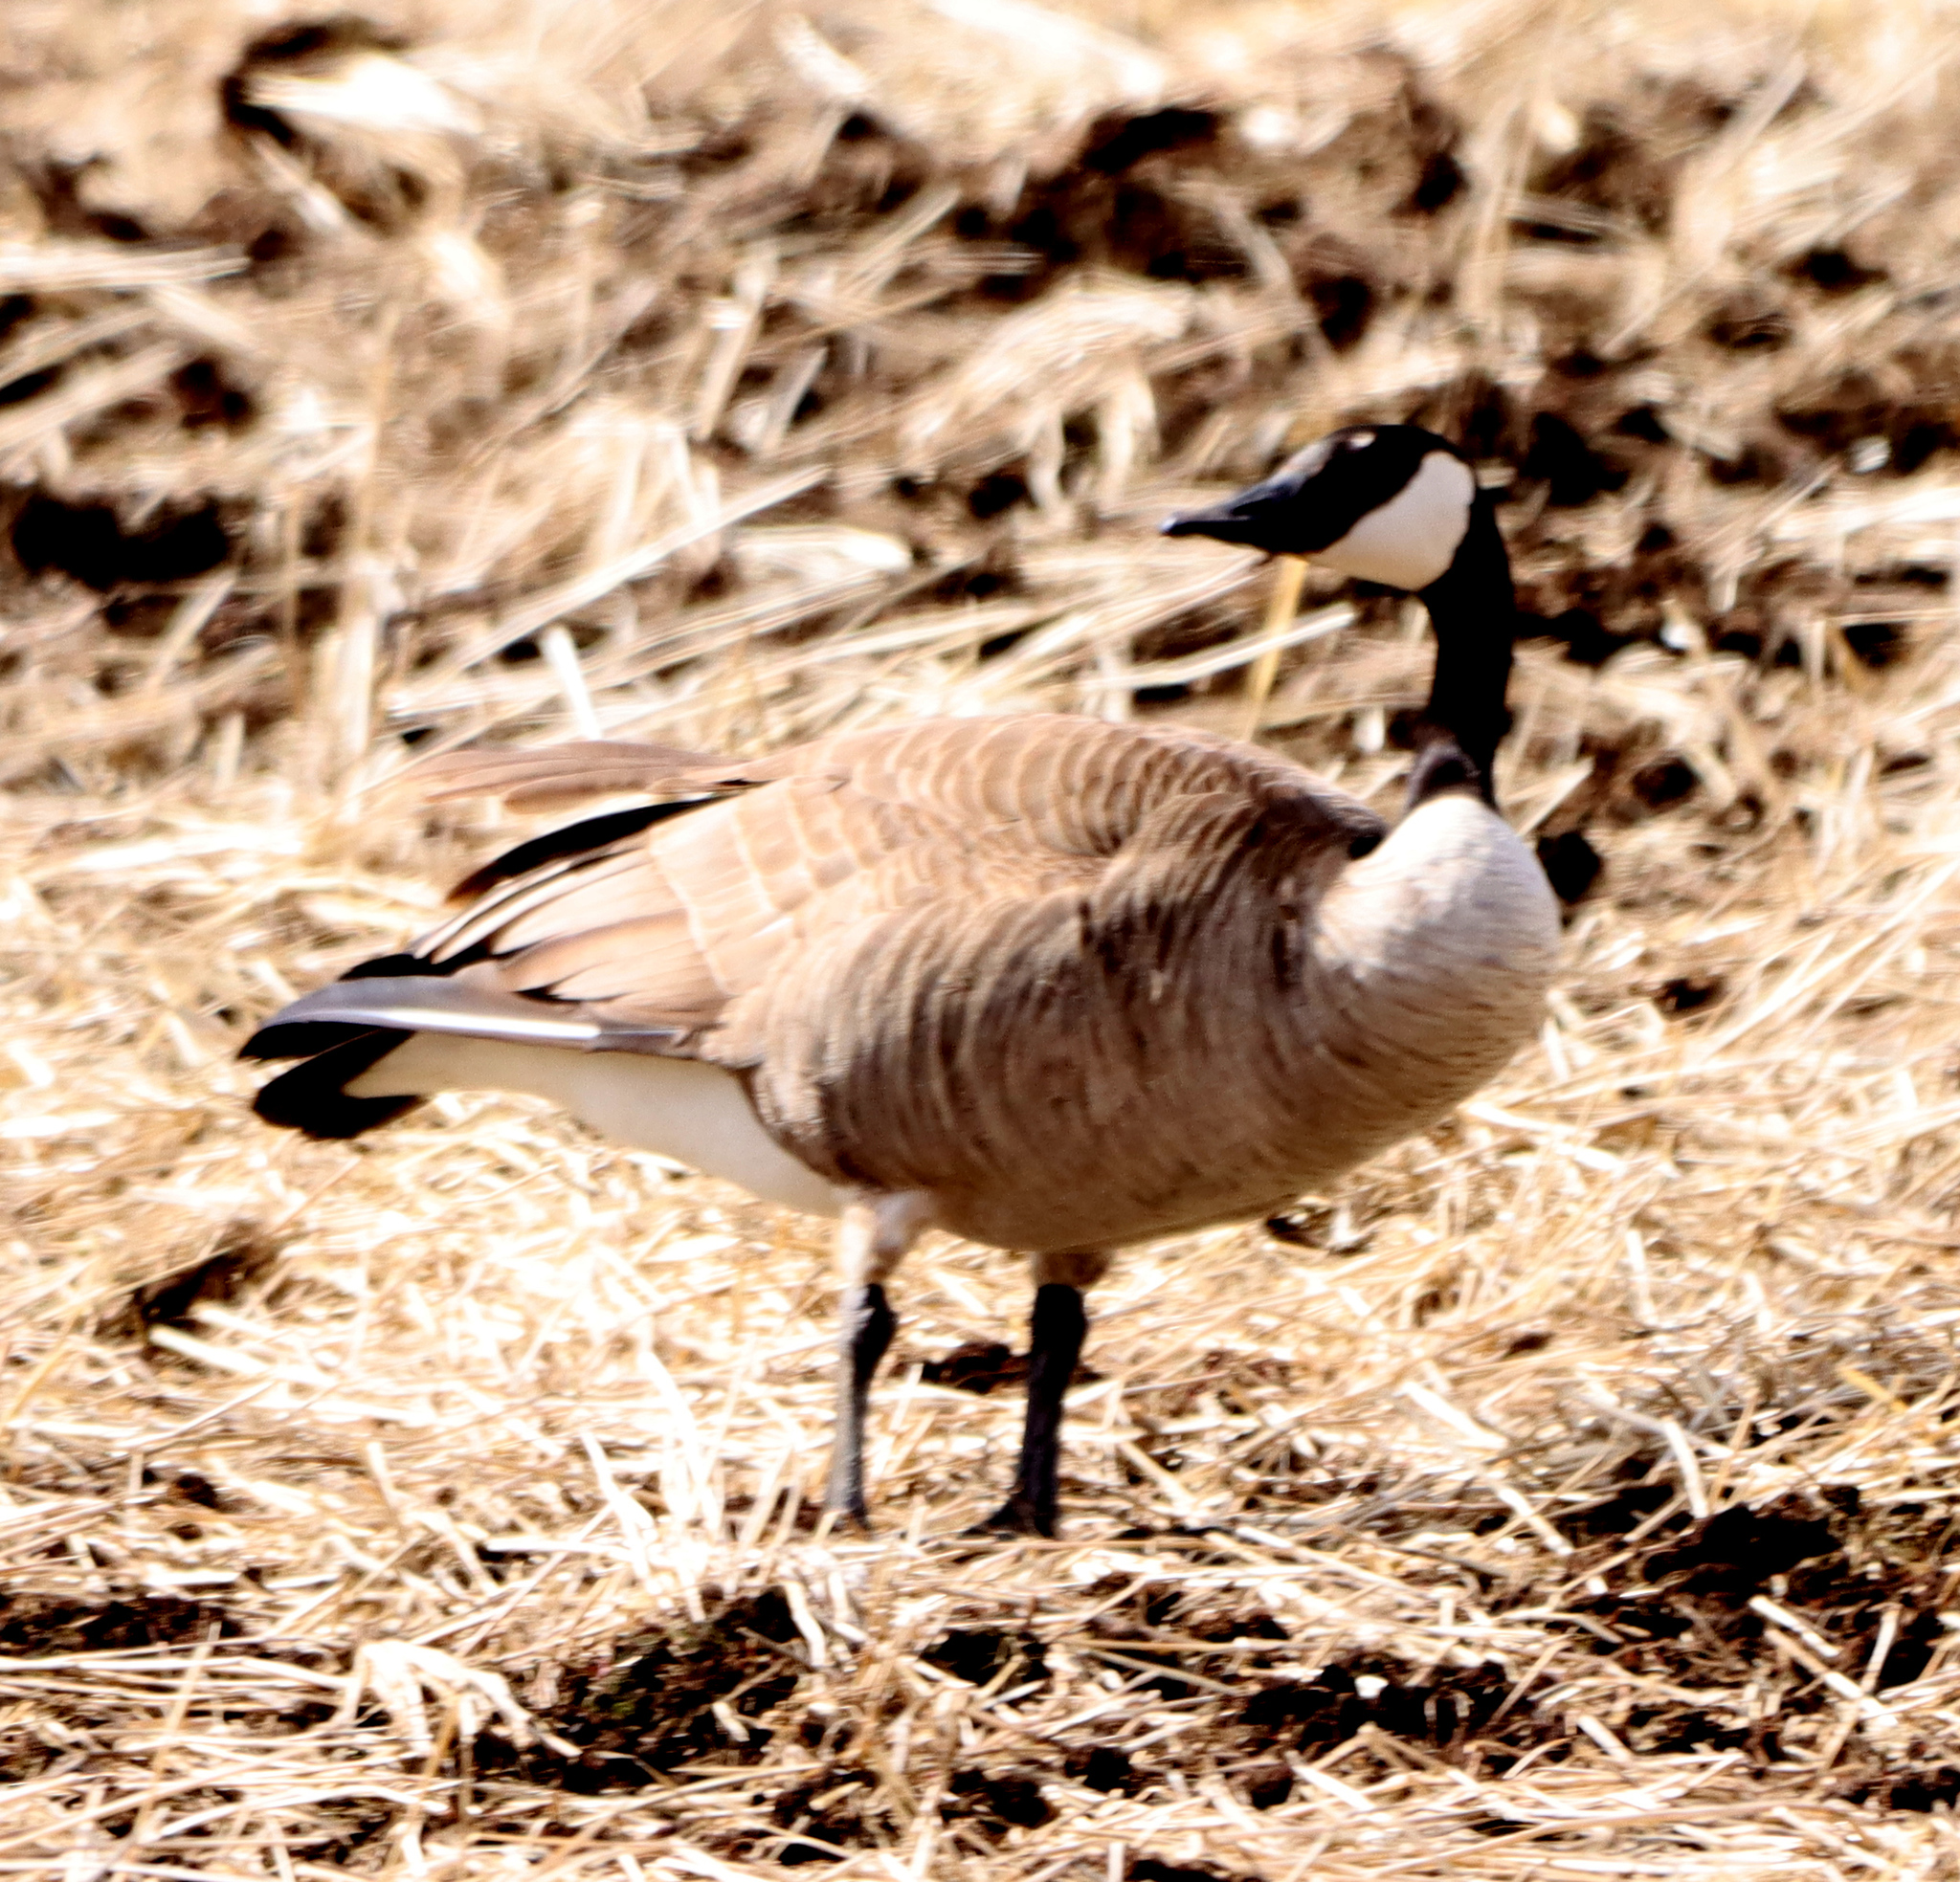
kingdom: Animalia
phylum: Chordata
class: Aves
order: Anseriformes
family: Anatidae
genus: Branta
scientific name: Branta canadensis
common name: Canada goose
